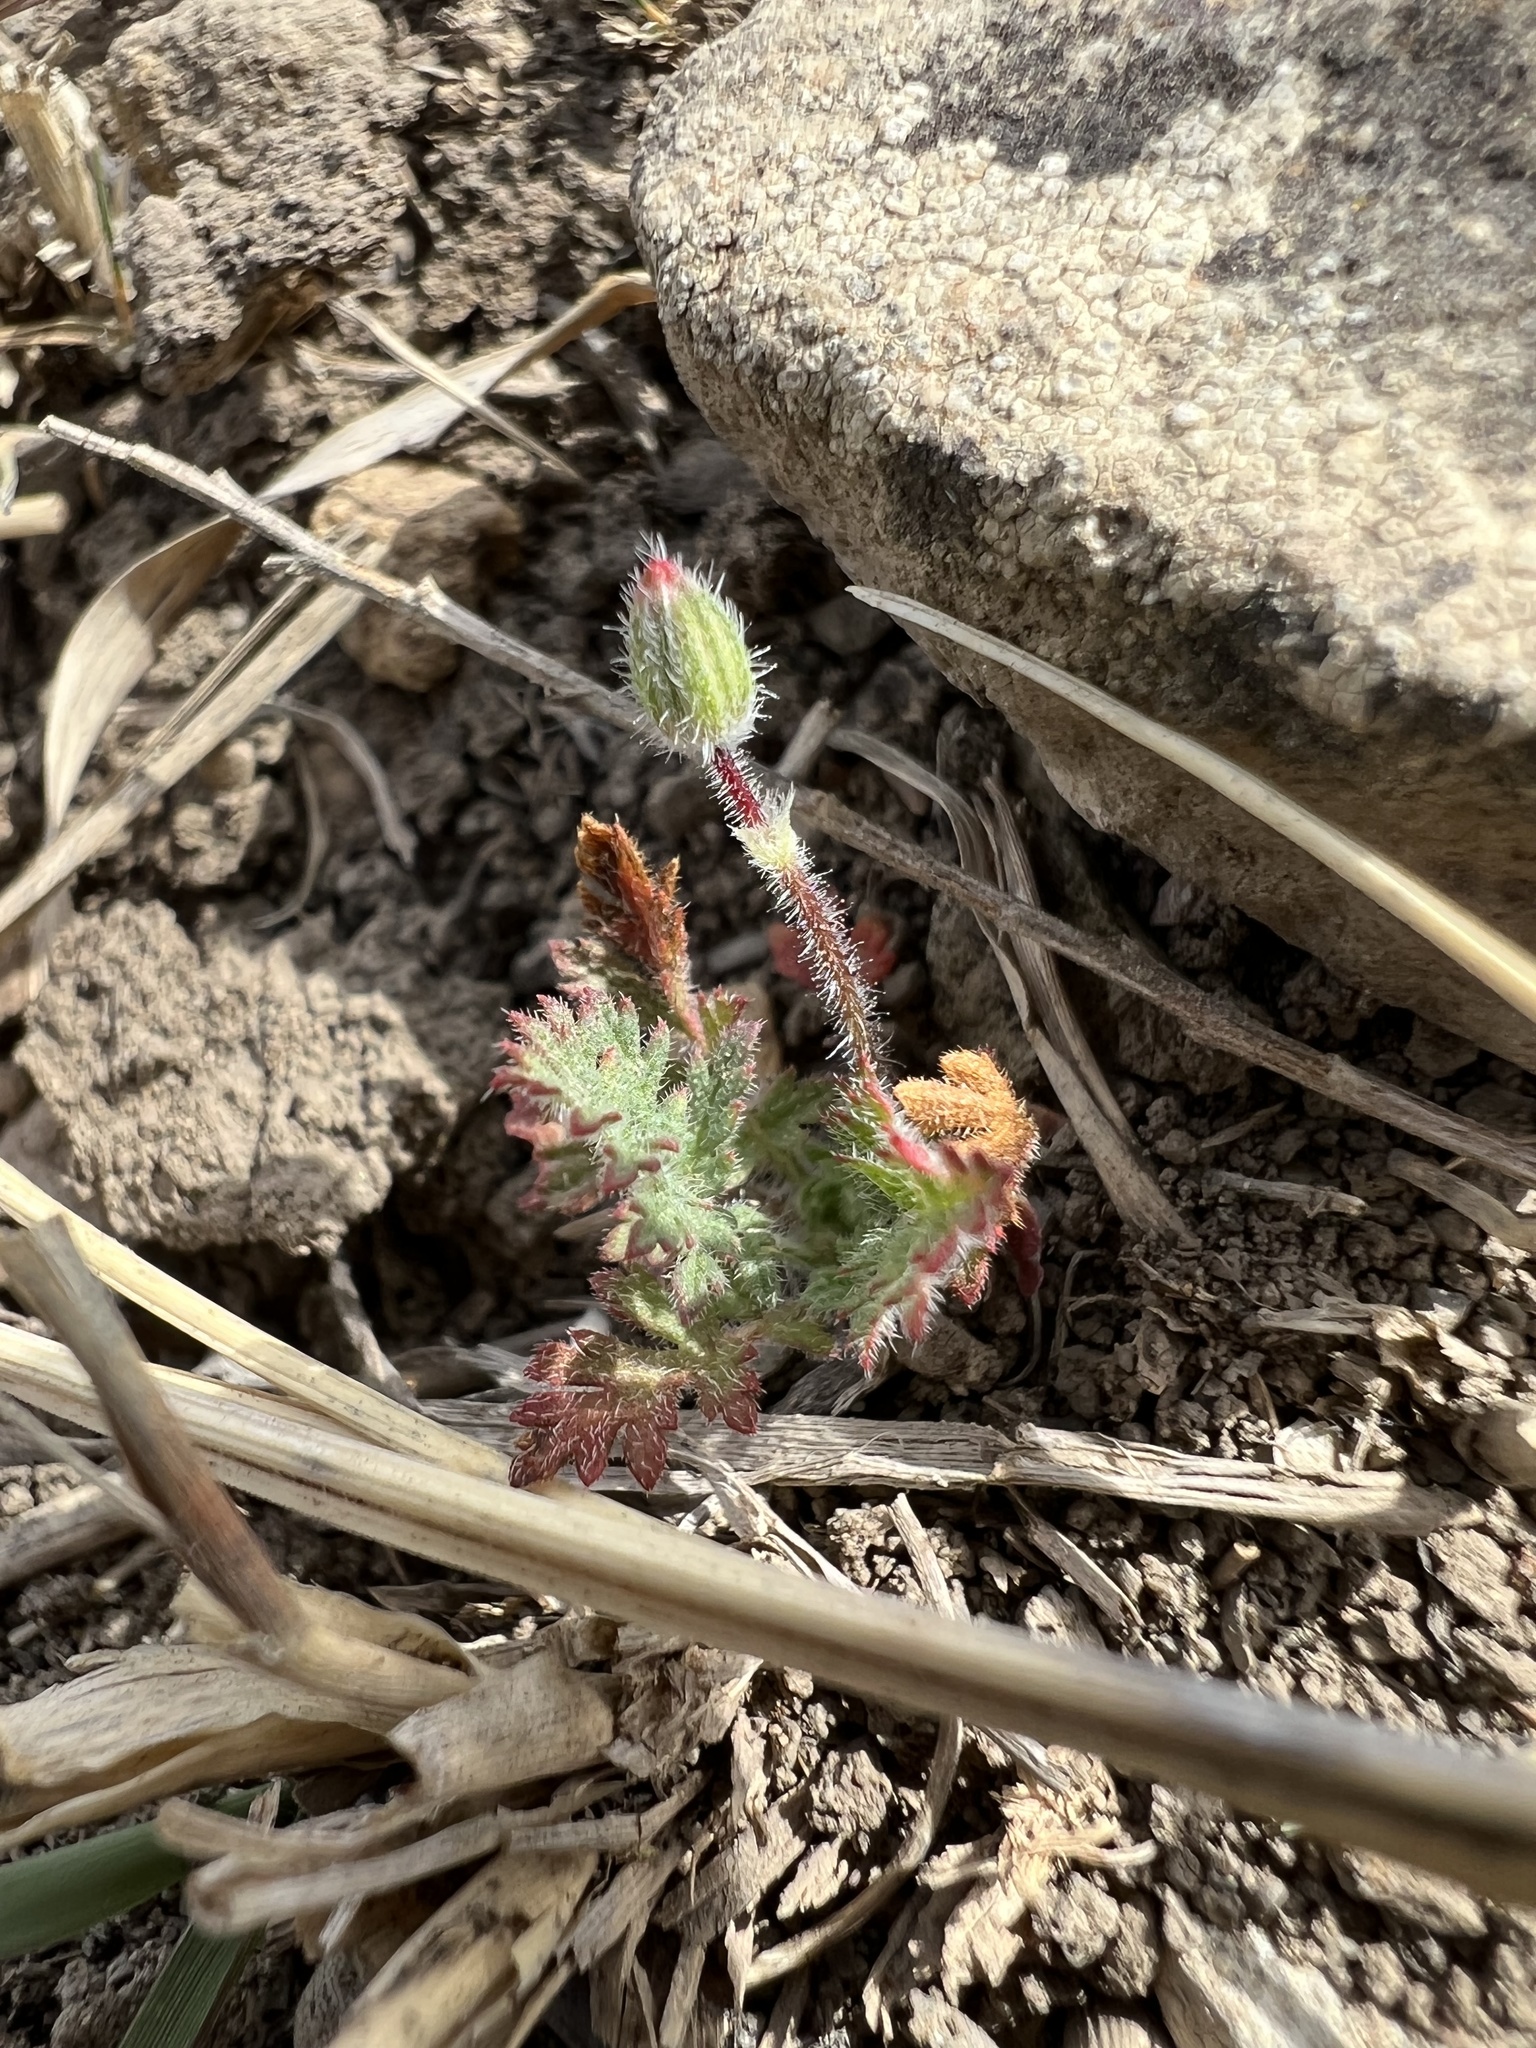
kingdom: Plantae
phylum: Tracheophyta
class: Magnoliopsida
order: Geraniales
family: Geraniaceae
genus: Erodium
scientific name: Erodium cicutarium
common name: Common stork's-bill
